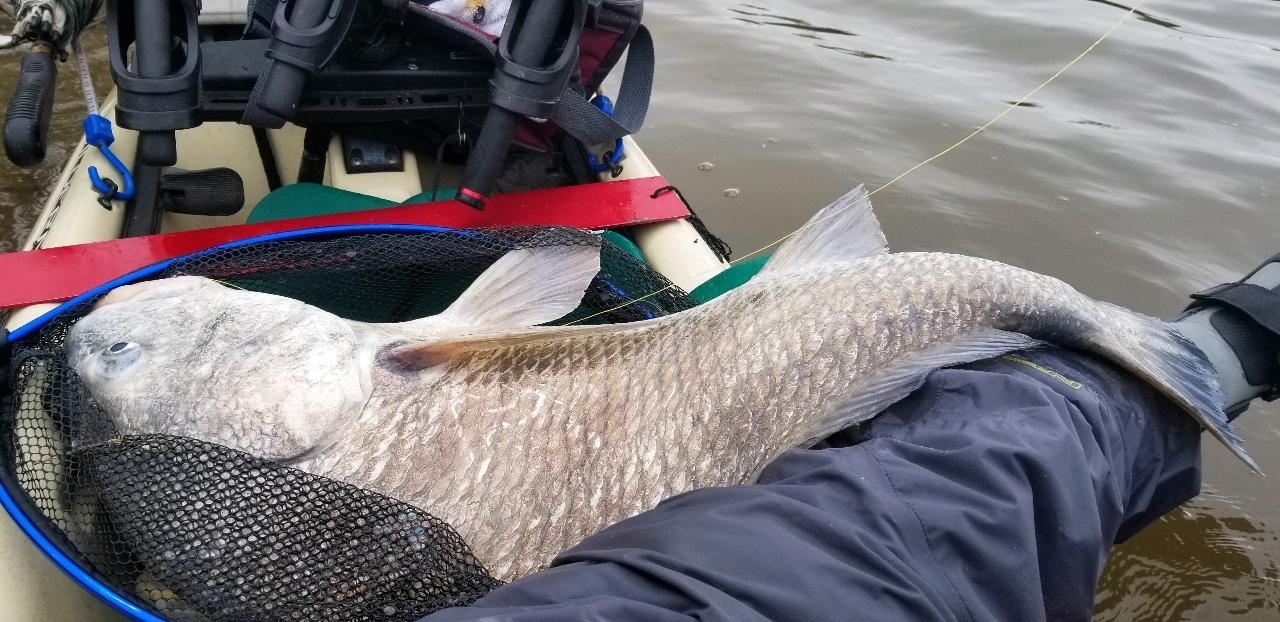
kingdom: Animalia
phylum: Chordata
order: Perciformes
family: Sciaenidae
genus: Pogonias
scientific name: Pogonias cromis
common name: Black drum
